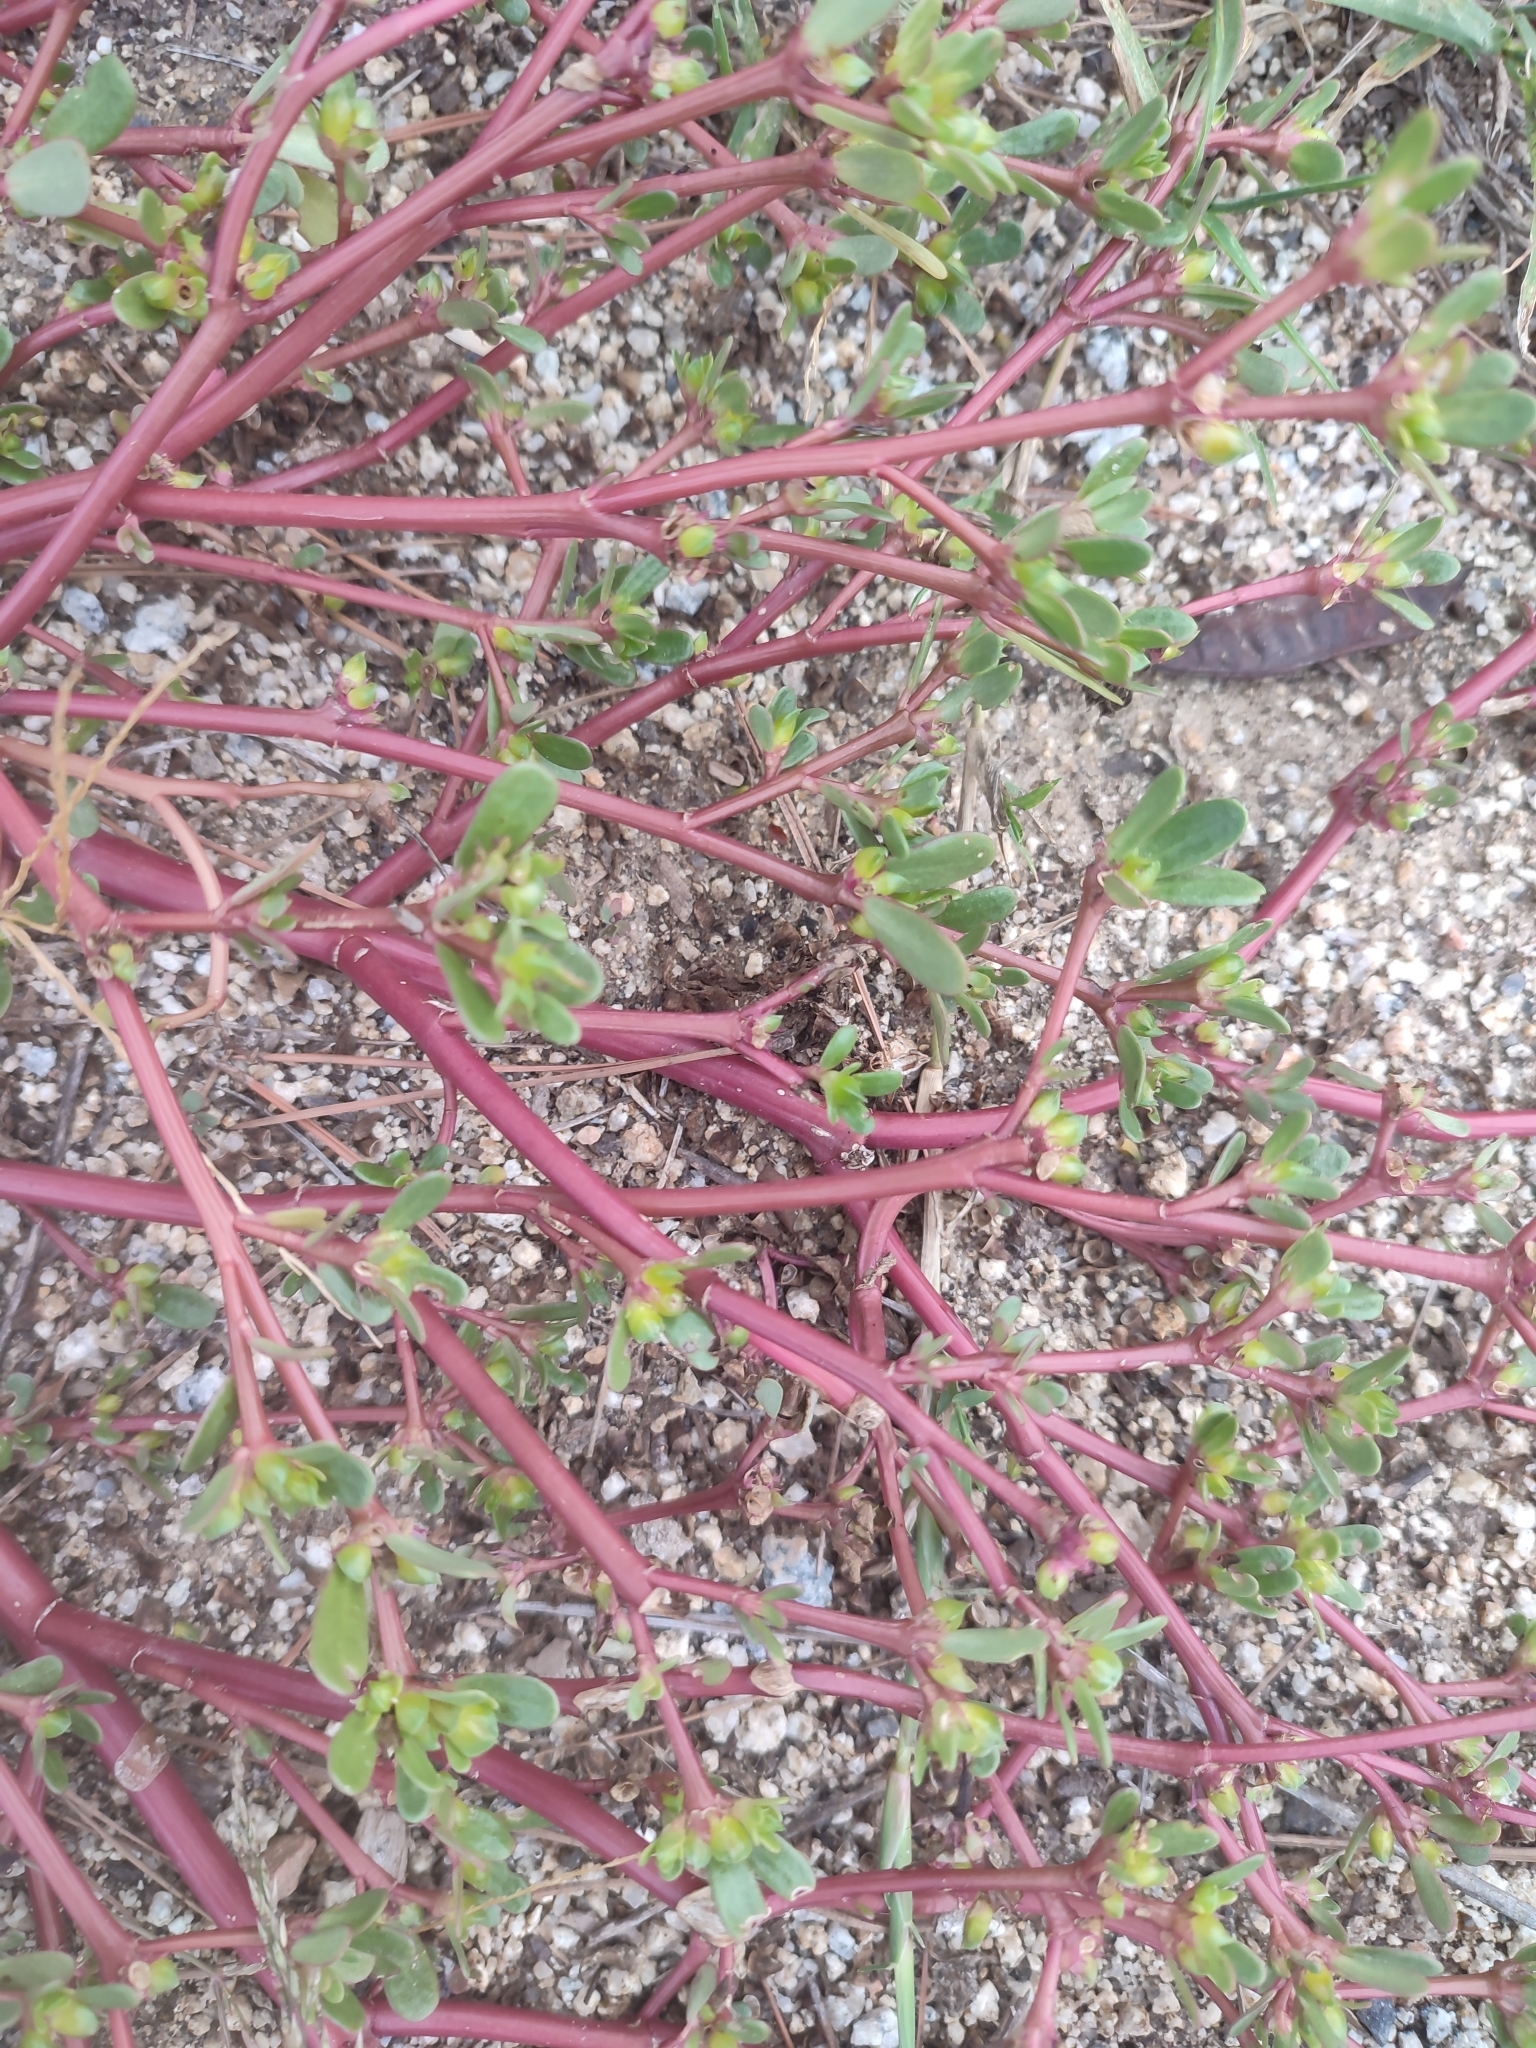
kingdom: Plantae
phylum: Tracheophyta
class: Magnoliopsida
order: Caryophyllales
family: Portulacaceae
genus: Portulaca
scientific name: Portulaca oleracea
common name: Common purslane
